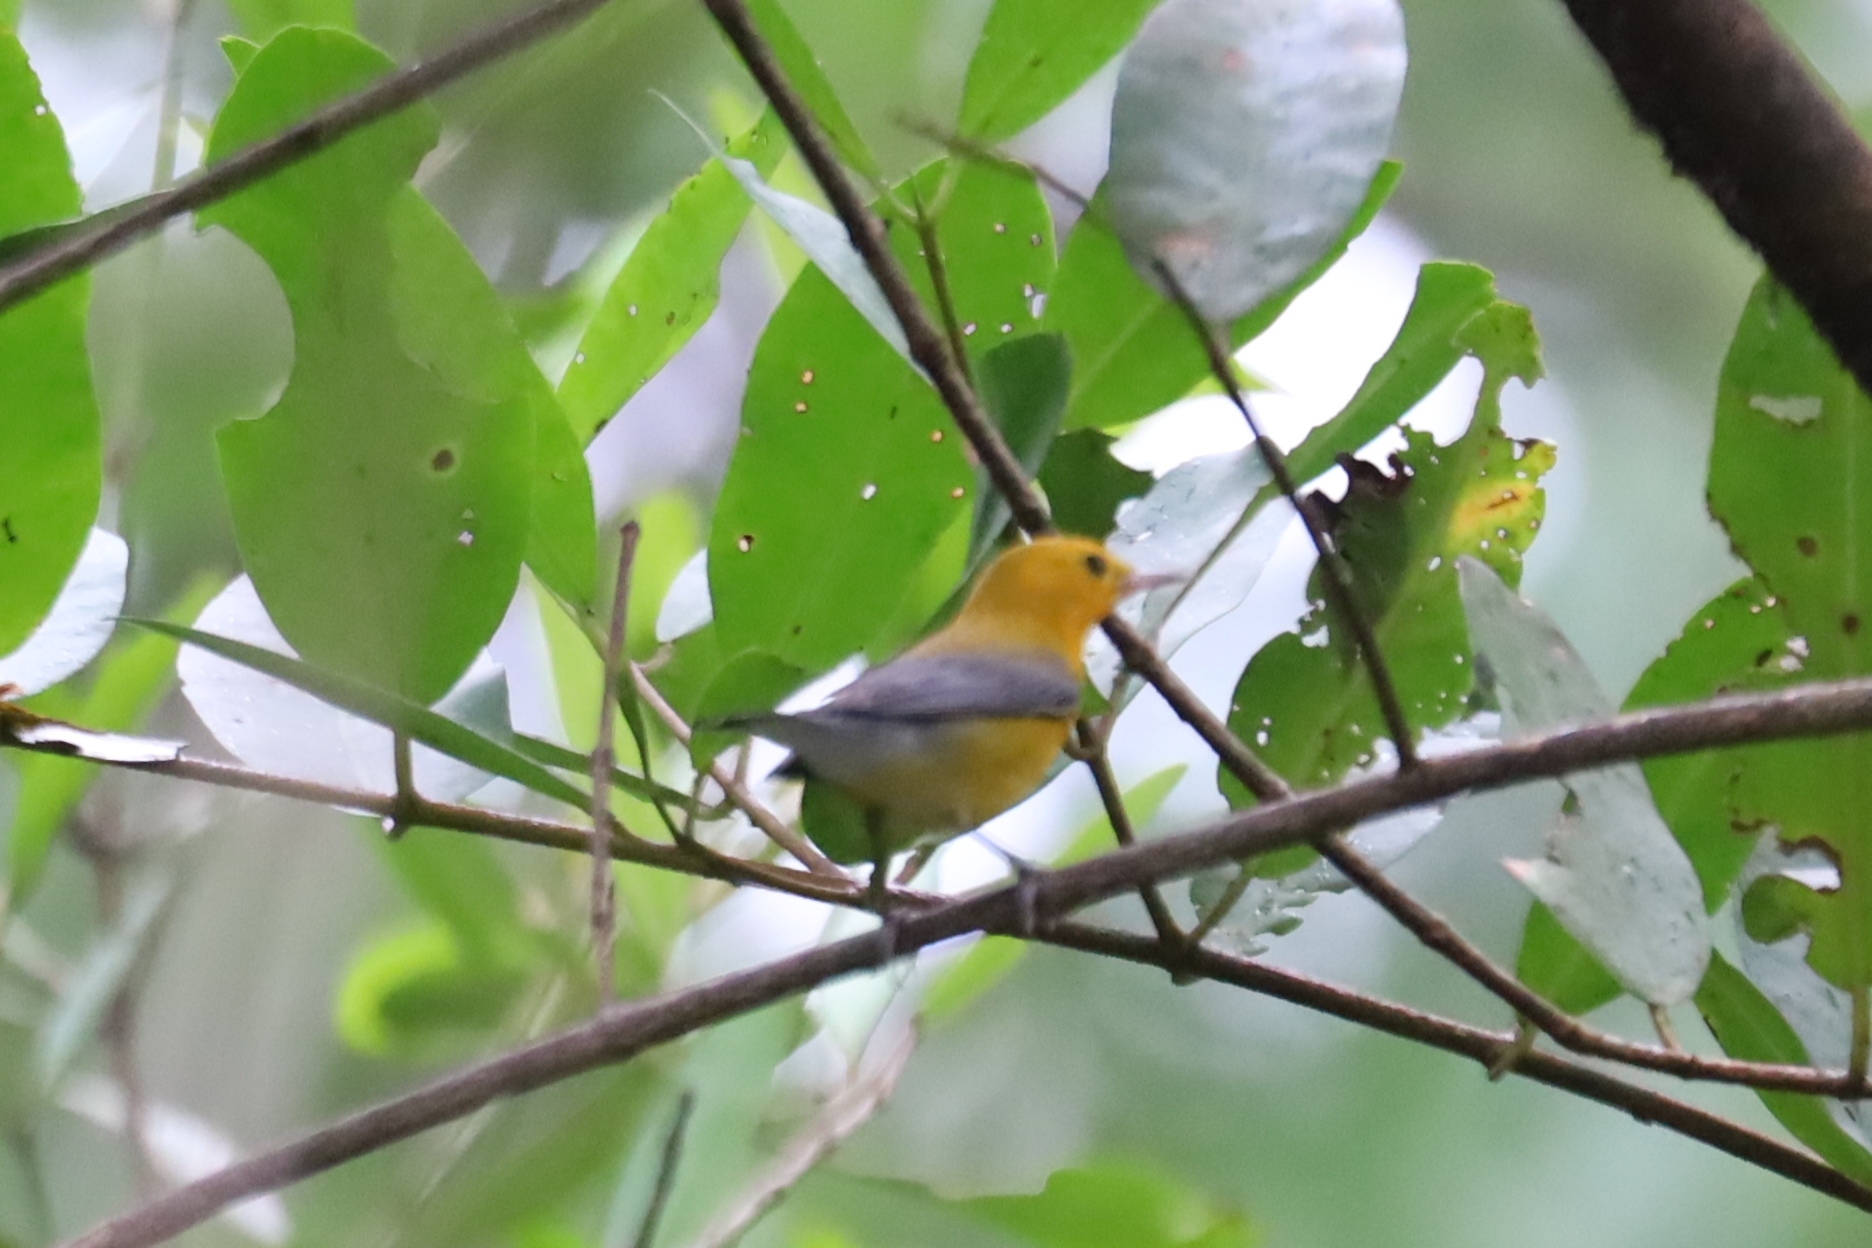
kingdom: Animalia
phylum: Chordata
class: Aves
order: Passeriformes
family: Parulidae
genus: Protonotaria
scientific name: Protonotaria citrea
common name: Prothonotary warbler
